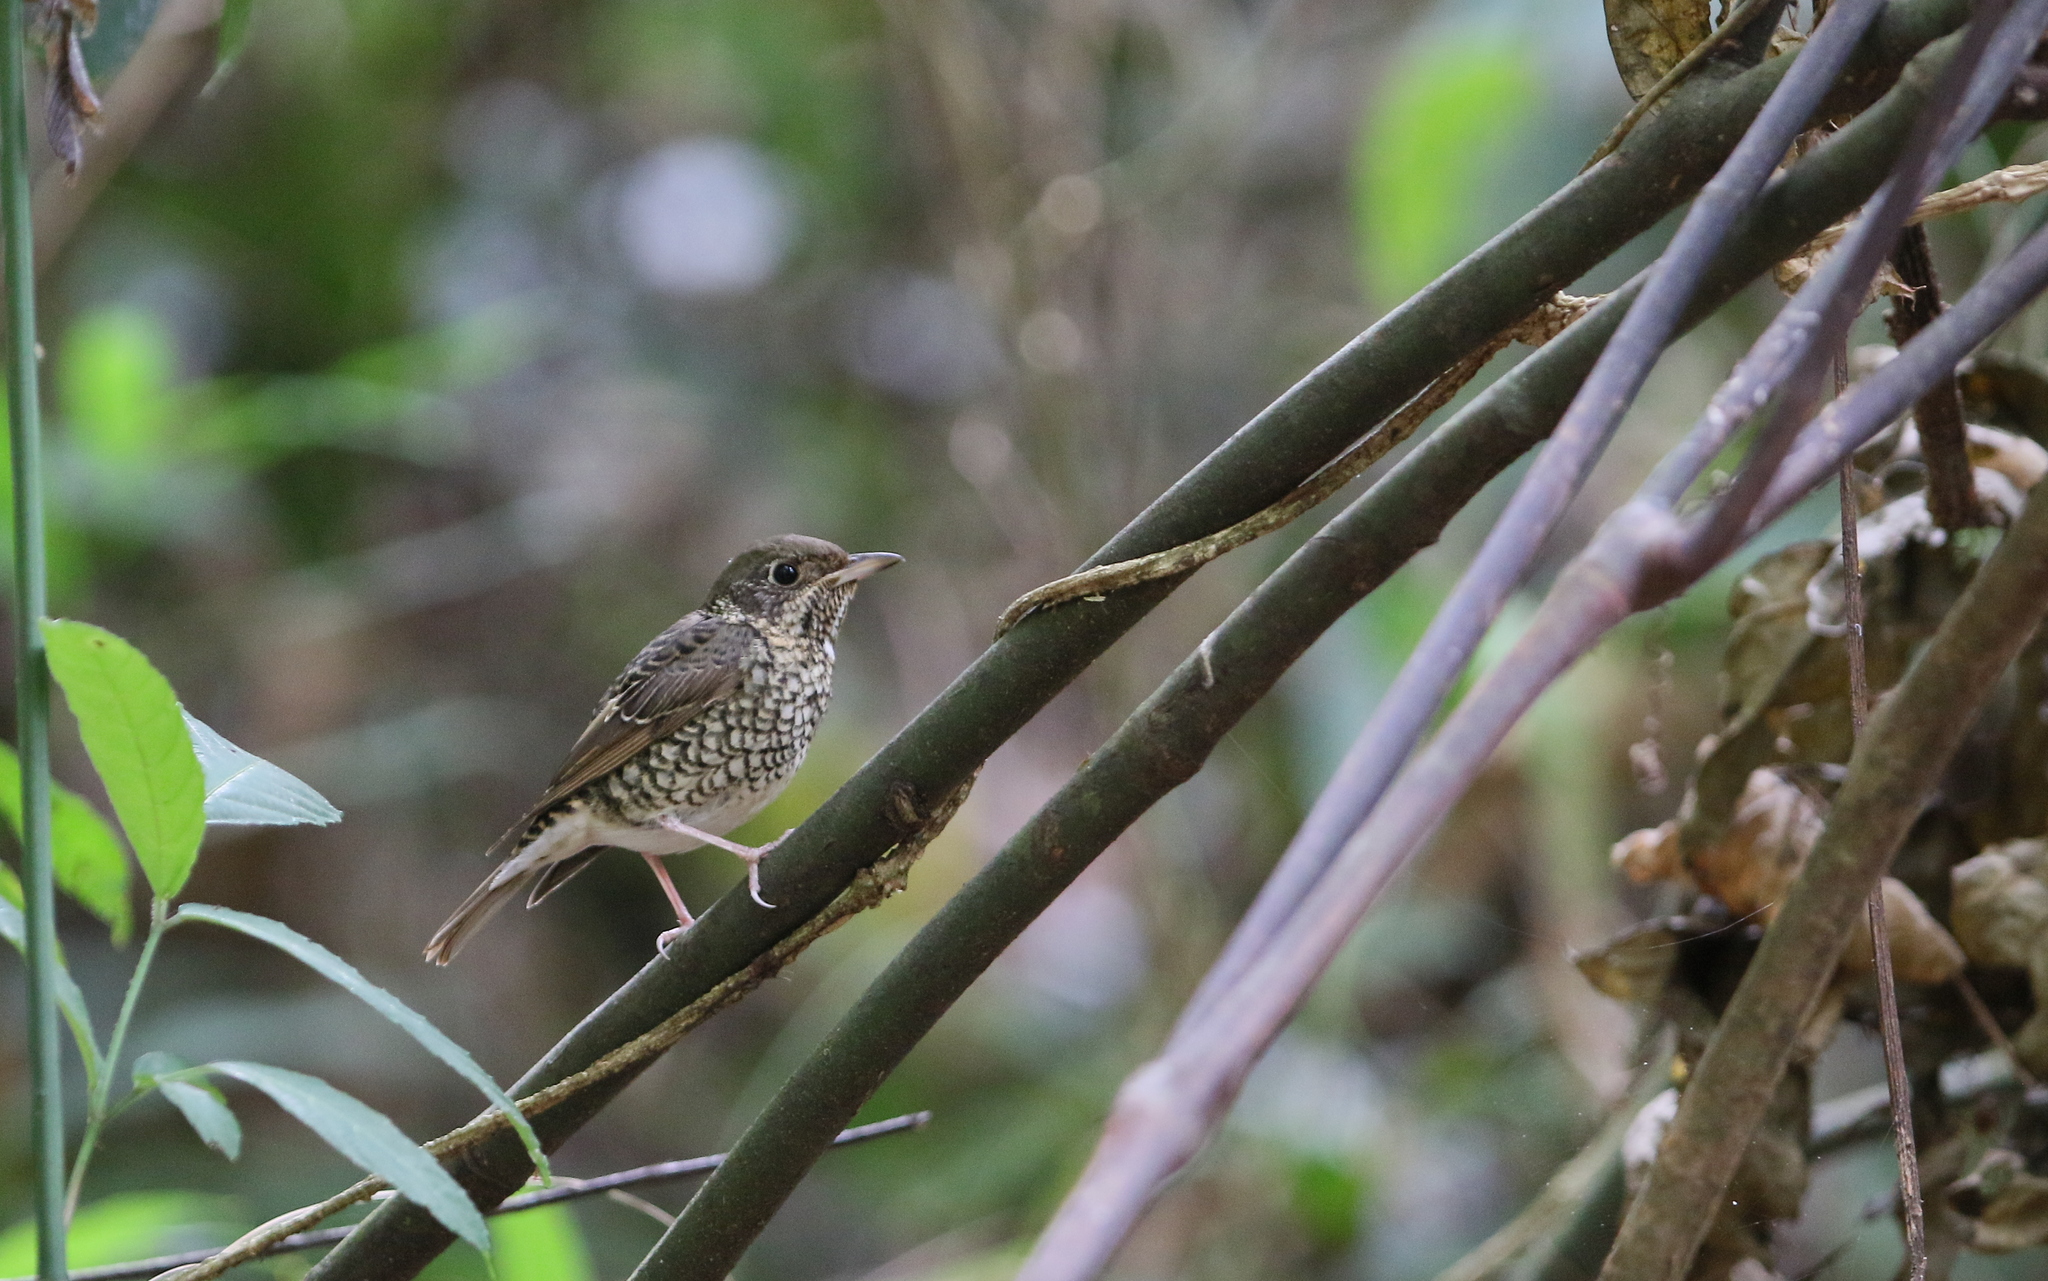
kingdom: Animalia
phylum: Chordata
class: Aves
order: Passeriformes
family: Muscicapidae
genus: Monticola
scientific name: Monticola gularis
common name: White-throated rock thrush
